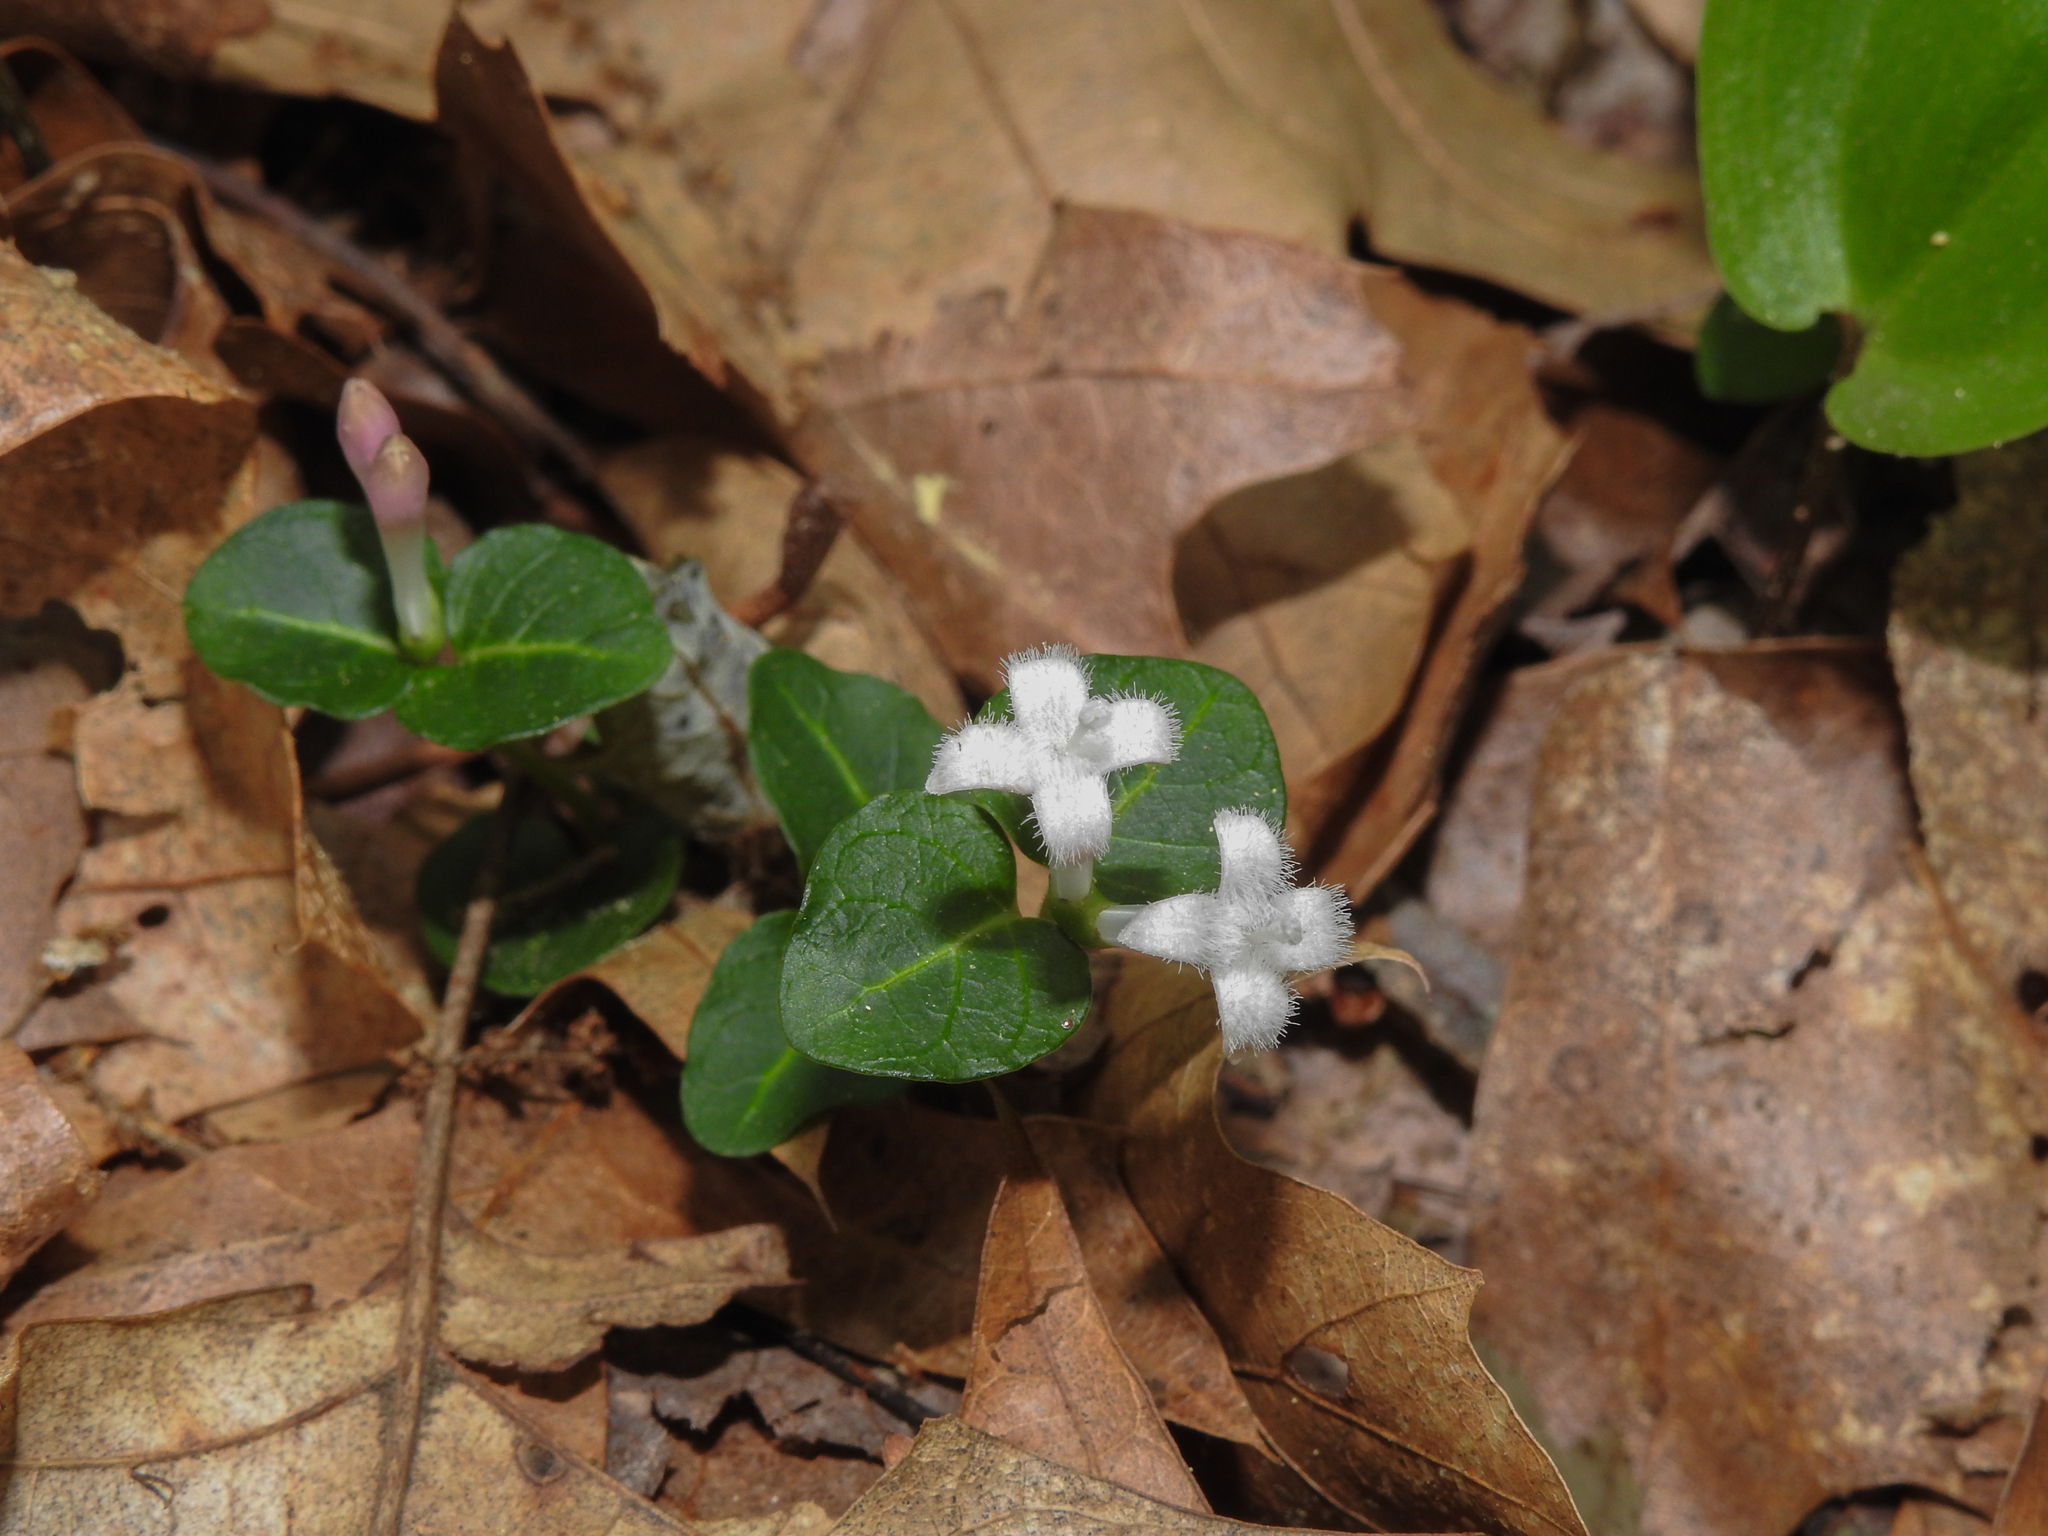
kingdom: Plantae
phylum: Tracheophyta
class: Magnoliopsida
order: Gentianales
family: Rubiaceae
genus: Mitchella
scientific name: Mitchella repens
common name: Partridge-berry
